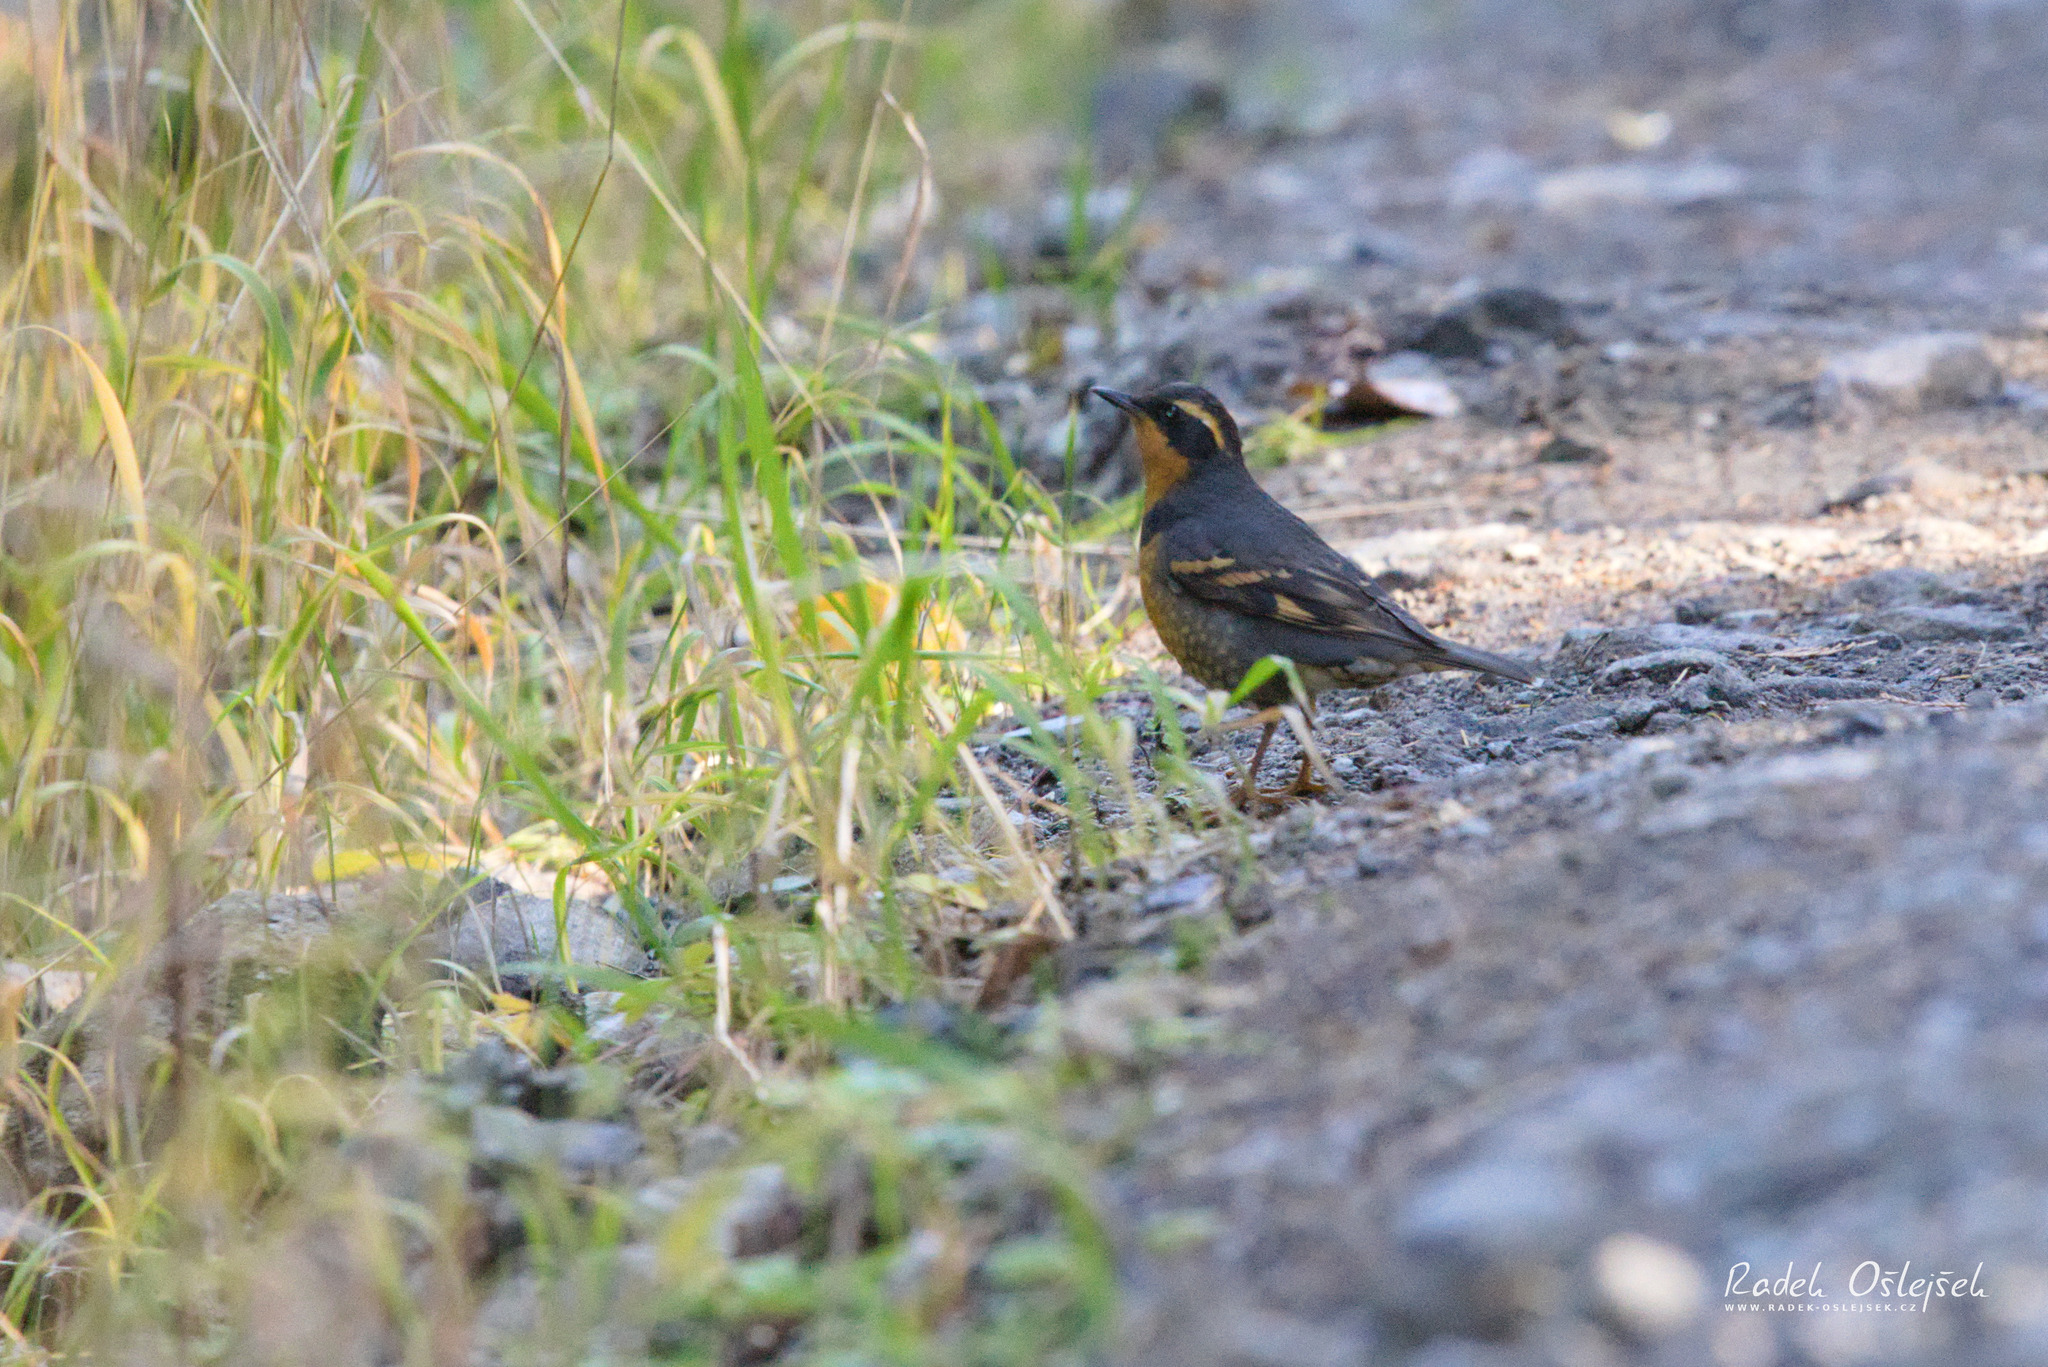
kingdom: Animalia
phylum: Chordata
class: Aves
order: Passeriformes
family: Turdidae
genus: Ixoreus
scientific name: Ixoreus naevius
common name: Varied thrush
